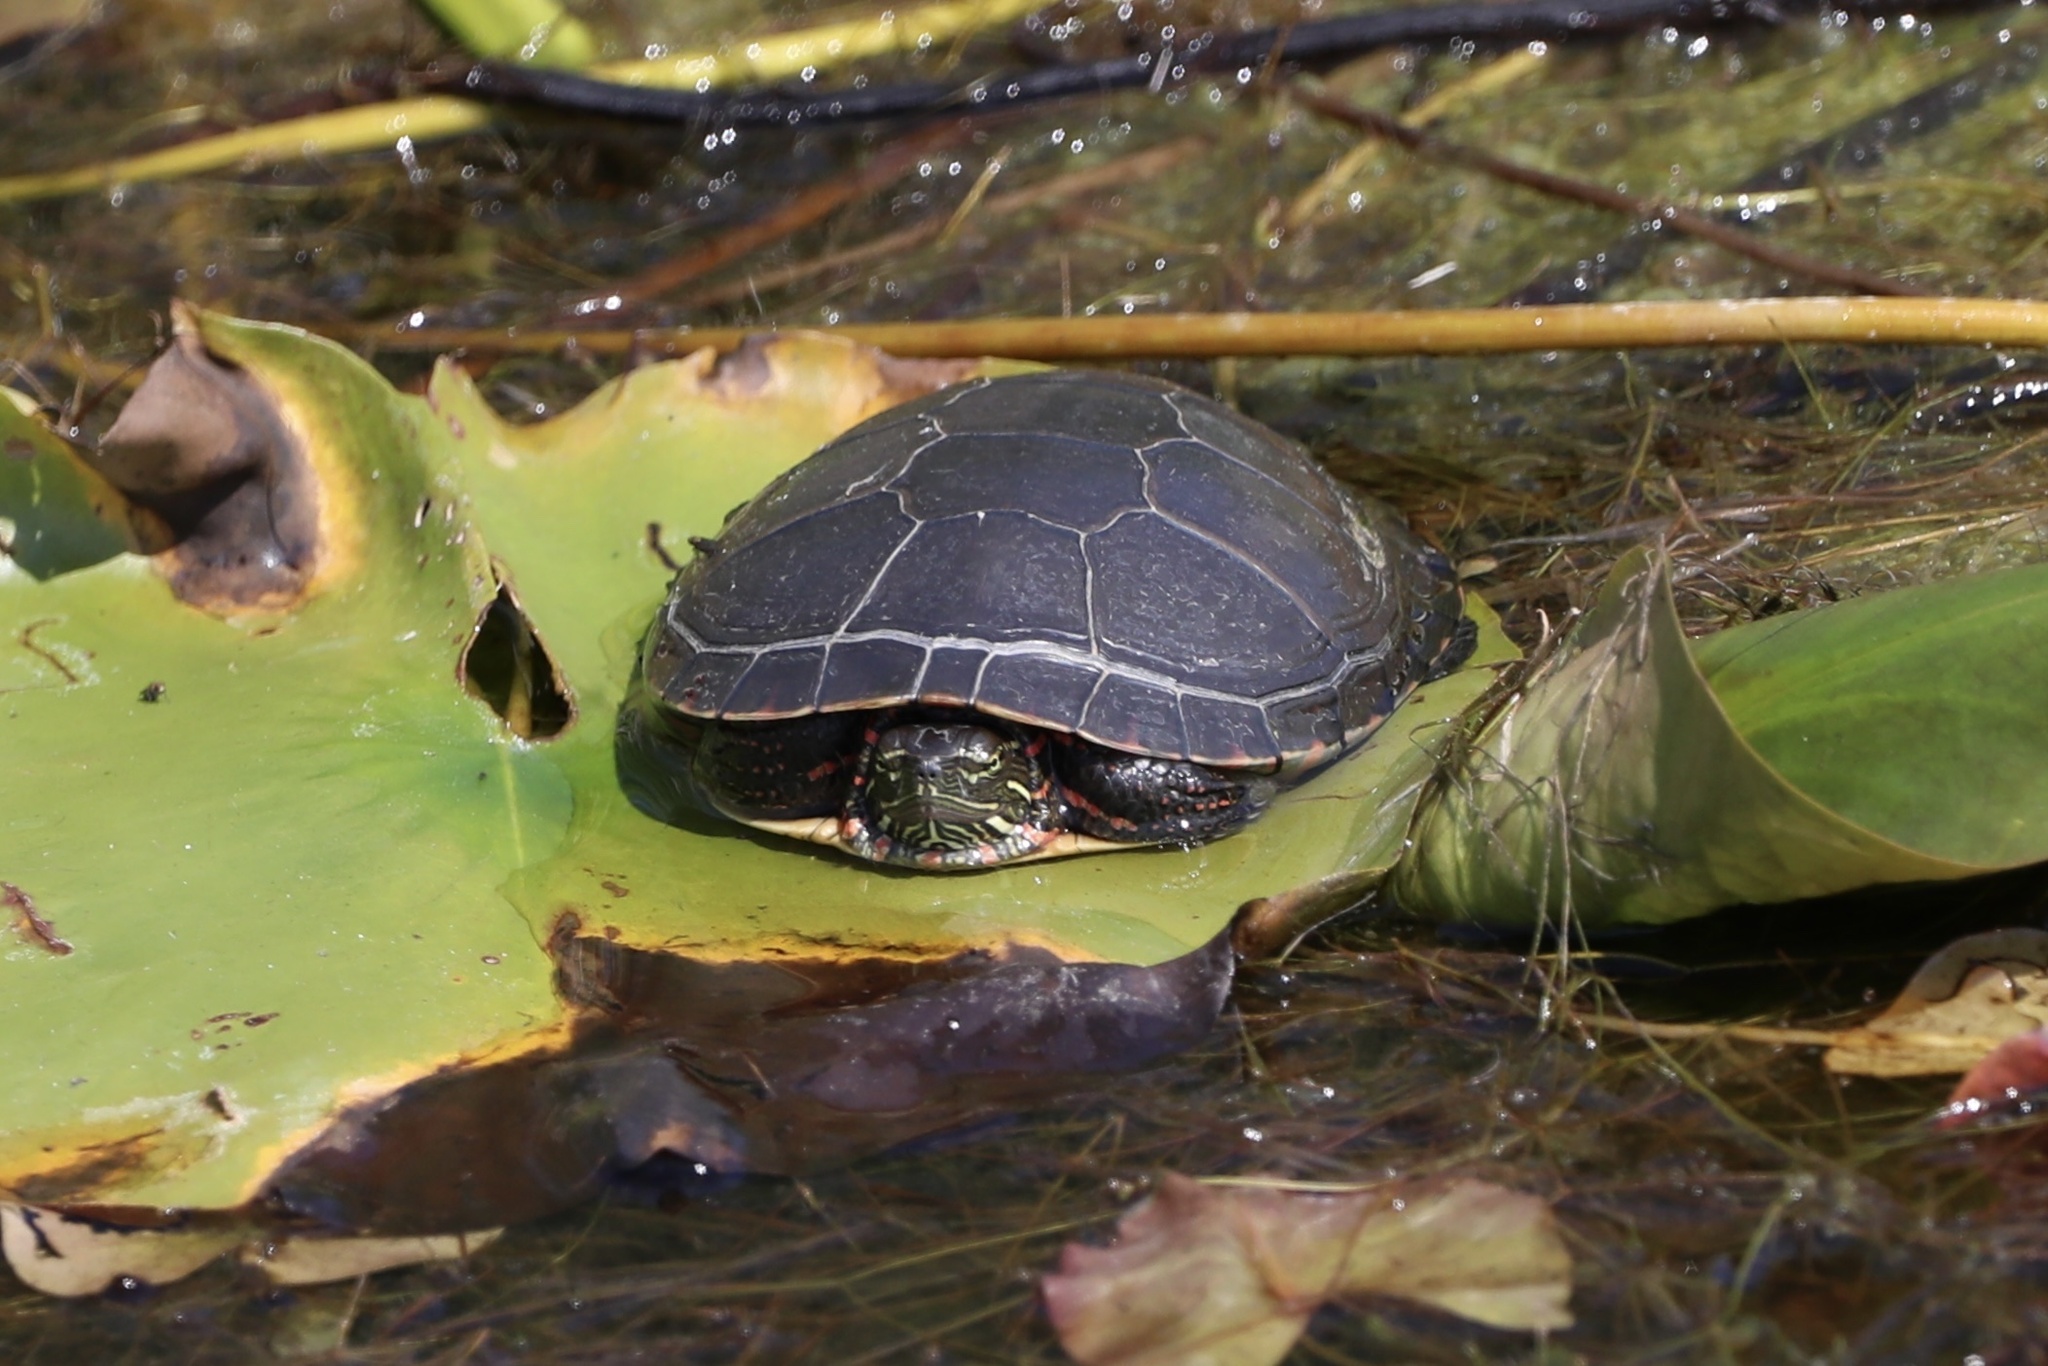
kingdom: Animalia
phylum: Chordata
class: Testudines
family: Emydidae
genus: Chrysemys
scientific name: Chrysemys picta
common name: Painted turtle
